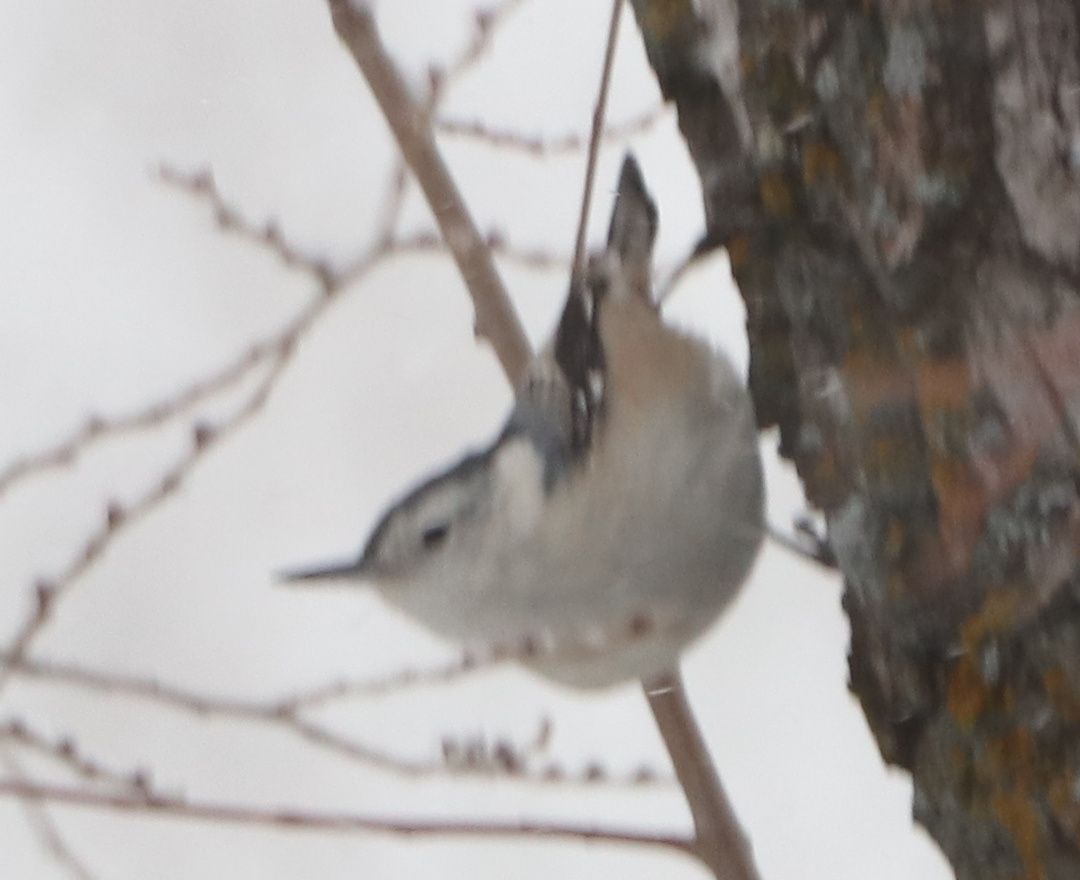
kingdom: Animalia
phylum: Chordata
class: Aves
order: Passeriformes
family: Sittidae
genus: Sitta
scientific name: Sitta carolinensis
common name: White-breasted nuthatch
